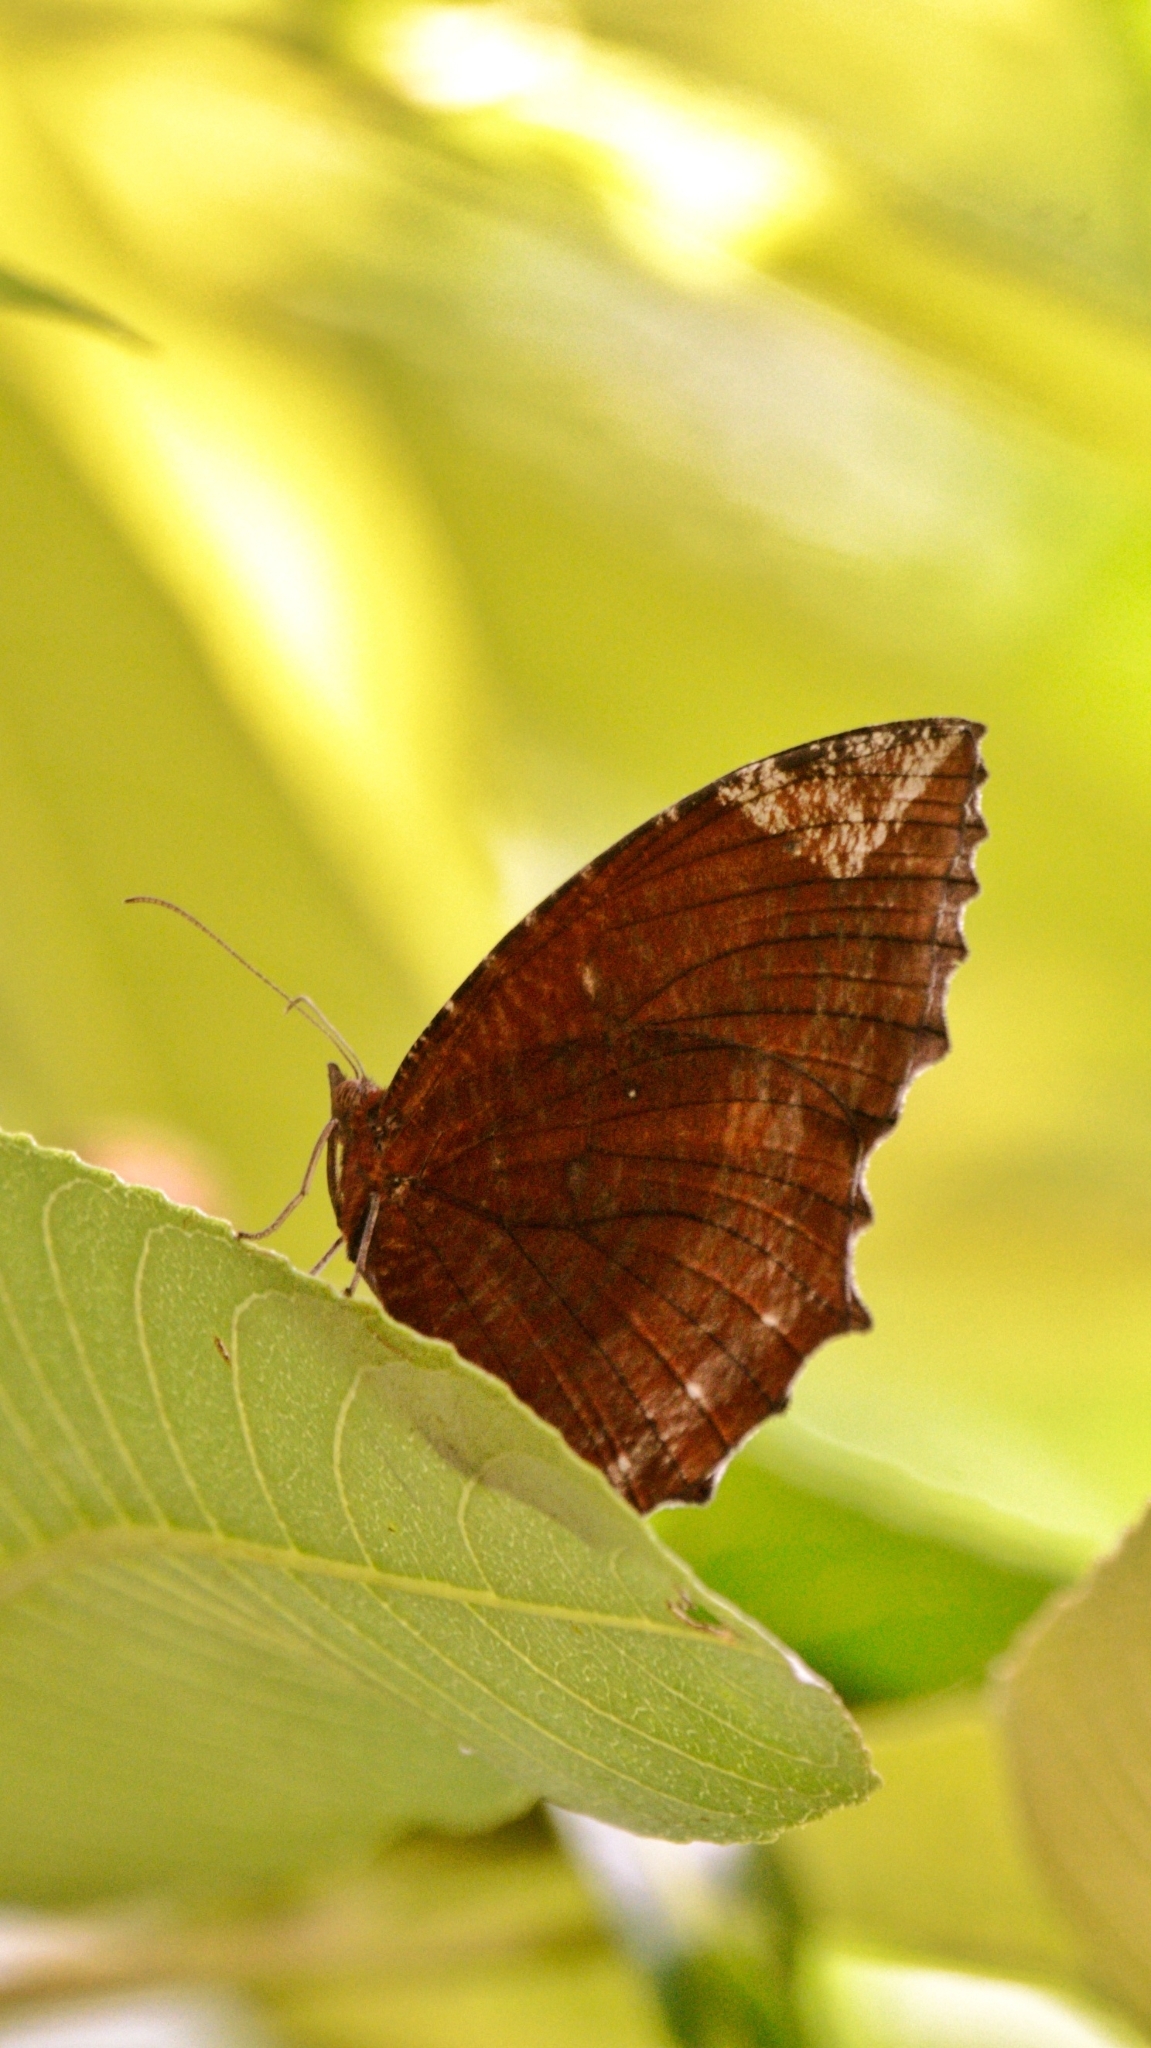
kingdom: Animalia
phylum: Arthropoda
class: Insecta
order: Lepidoptera
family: Nymphalidae
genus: Elymnias
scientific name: Elymnias hypermnestra
